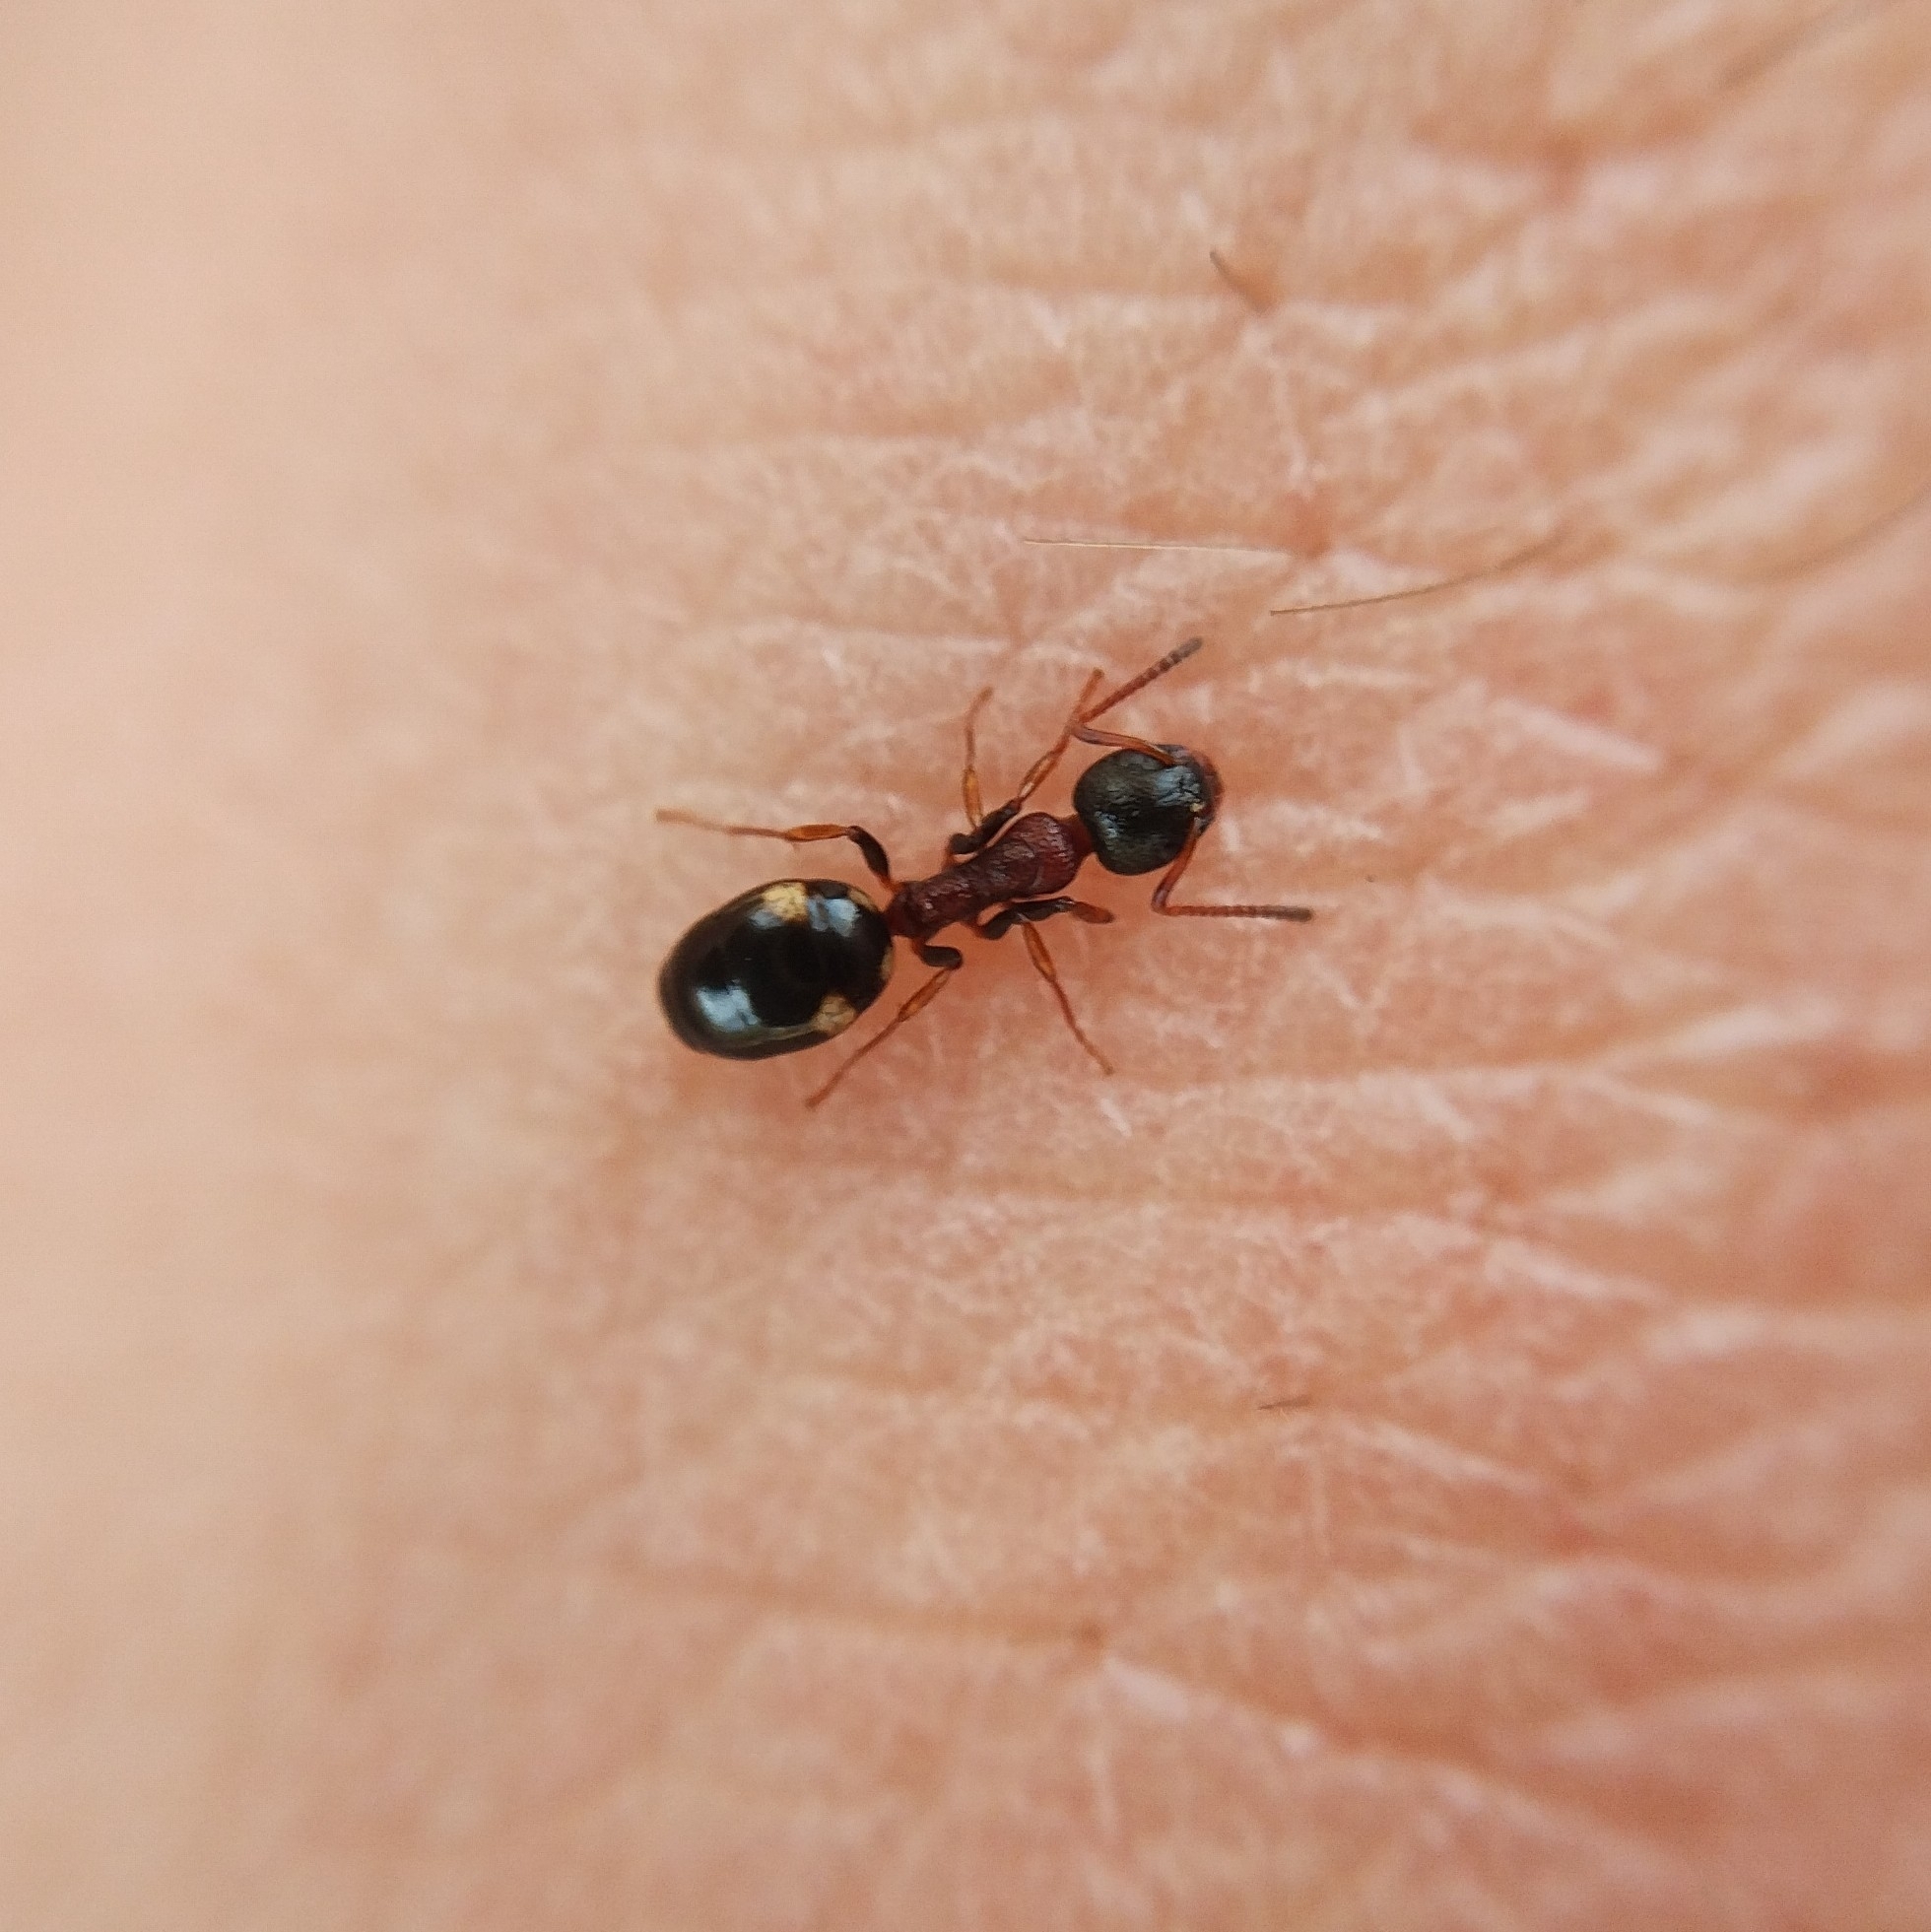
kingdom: Animalia
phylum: Arthropoda
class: Insecta
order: Hymenoptera
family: Formicidae
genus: Dolichoderus
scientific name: Dolichoderus quadripunctatus
